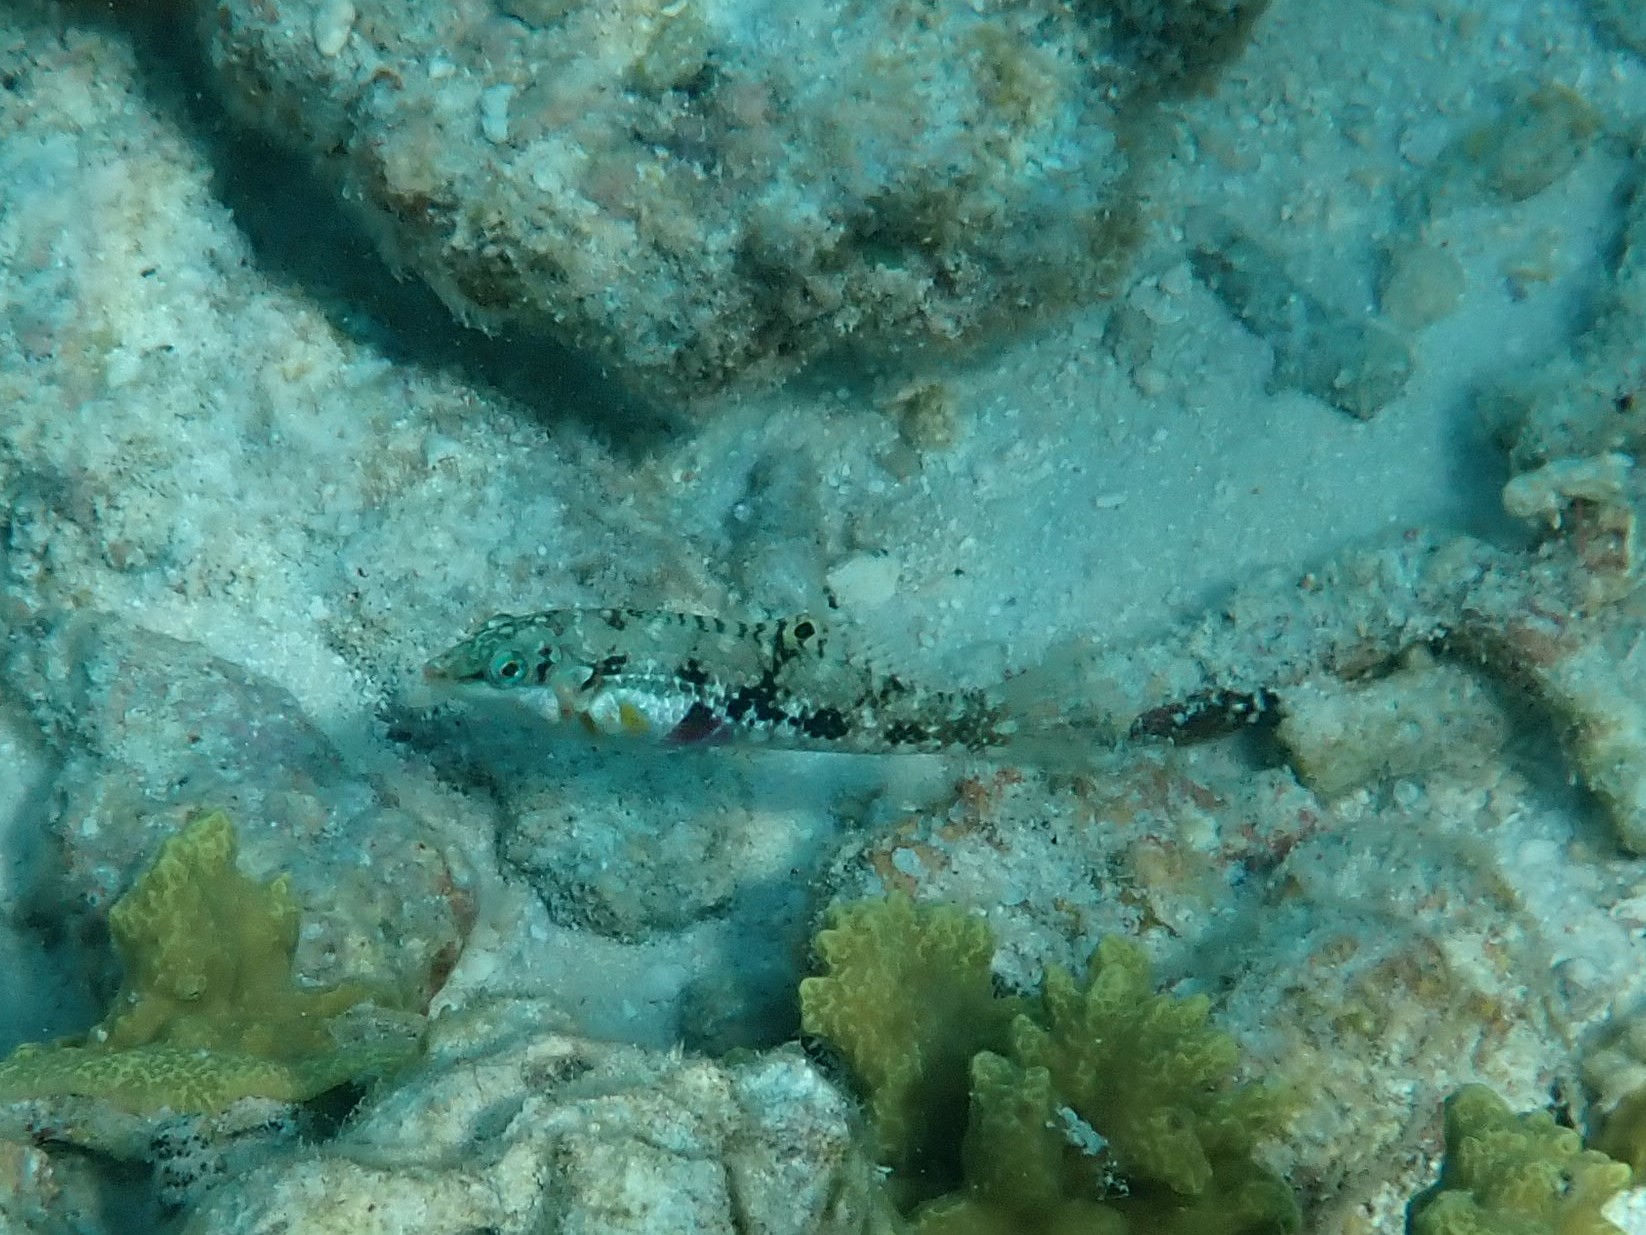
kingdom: Animalia
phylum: Chordata
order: Perciformes
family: Labridae
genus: Halichoeres
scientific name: Halichoeres nebulosus
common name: Clouded wrasse
